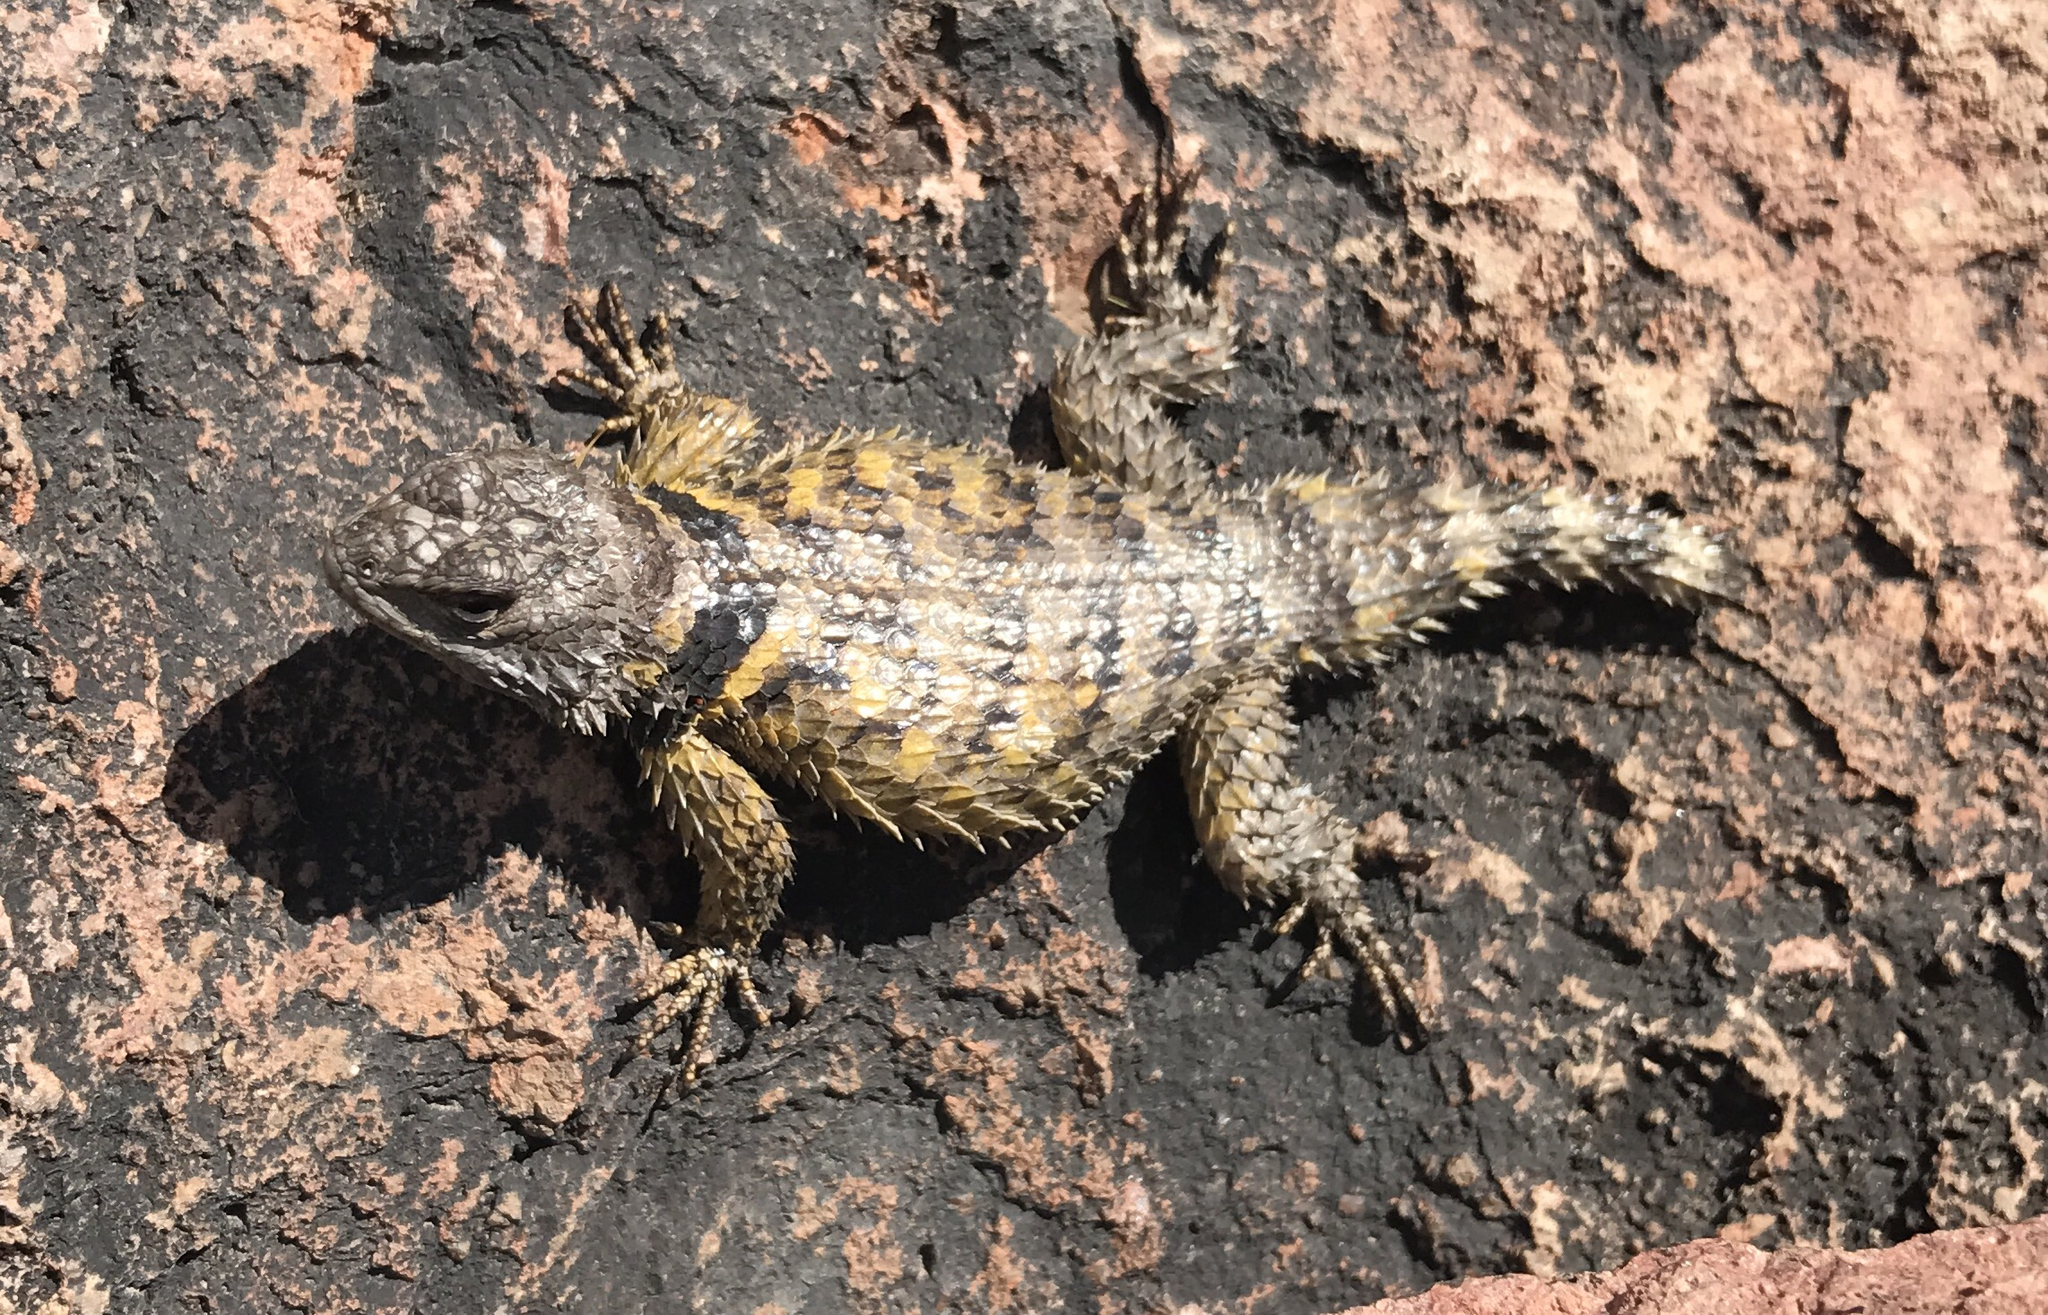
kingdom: Animalia
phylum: Chordata
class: Squamata
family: Phrynosomatidae
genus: Sceloporus
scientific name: Sceloporus poinsettii
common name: Crevice spiny lizard
